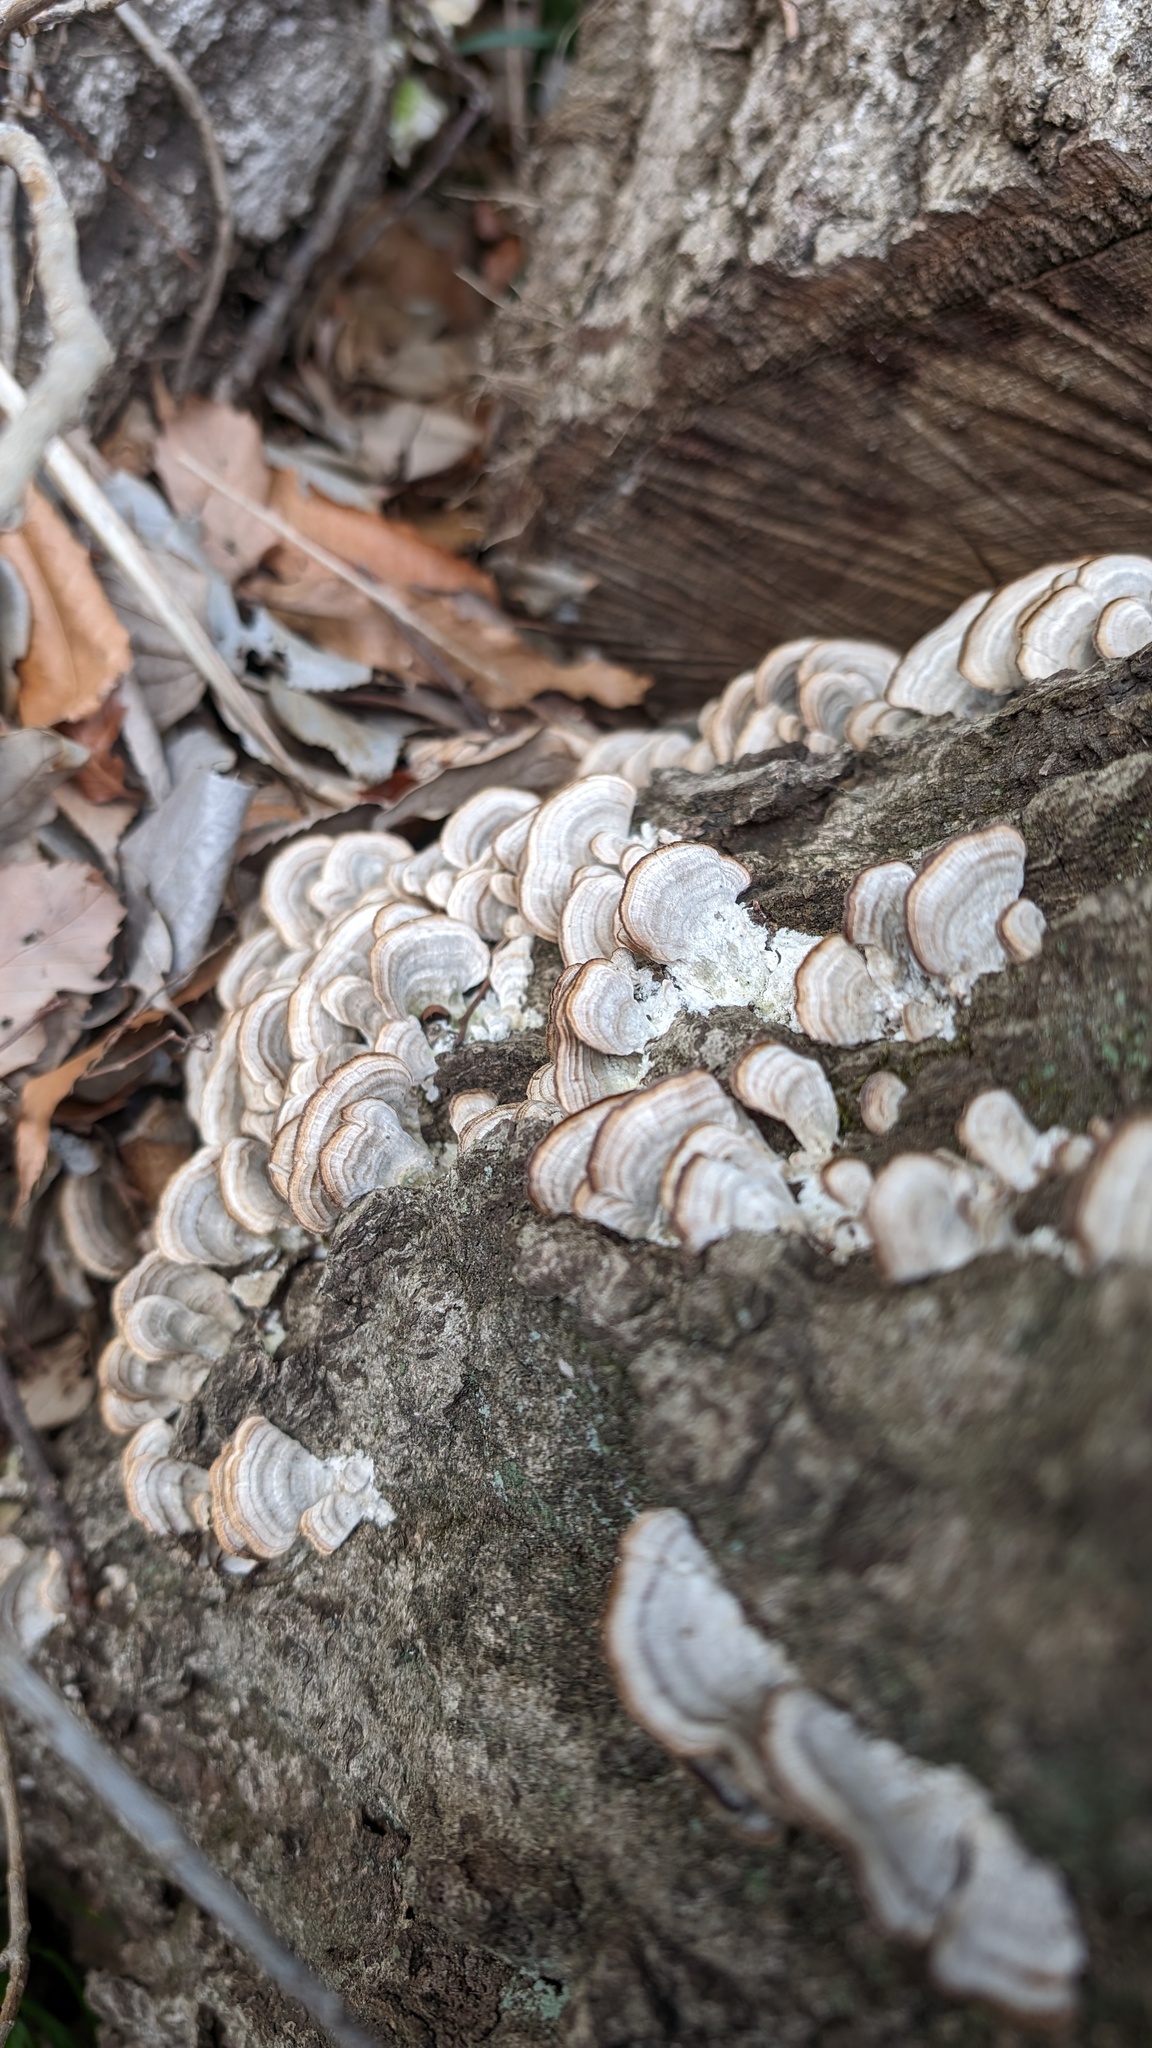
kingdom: Fungi
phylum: Basidiomycota
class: Agaricomycetes
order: Hymenochaetales
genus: Trichaptum
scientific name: Trichaptum biforme
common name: Violet-toothed polypore
